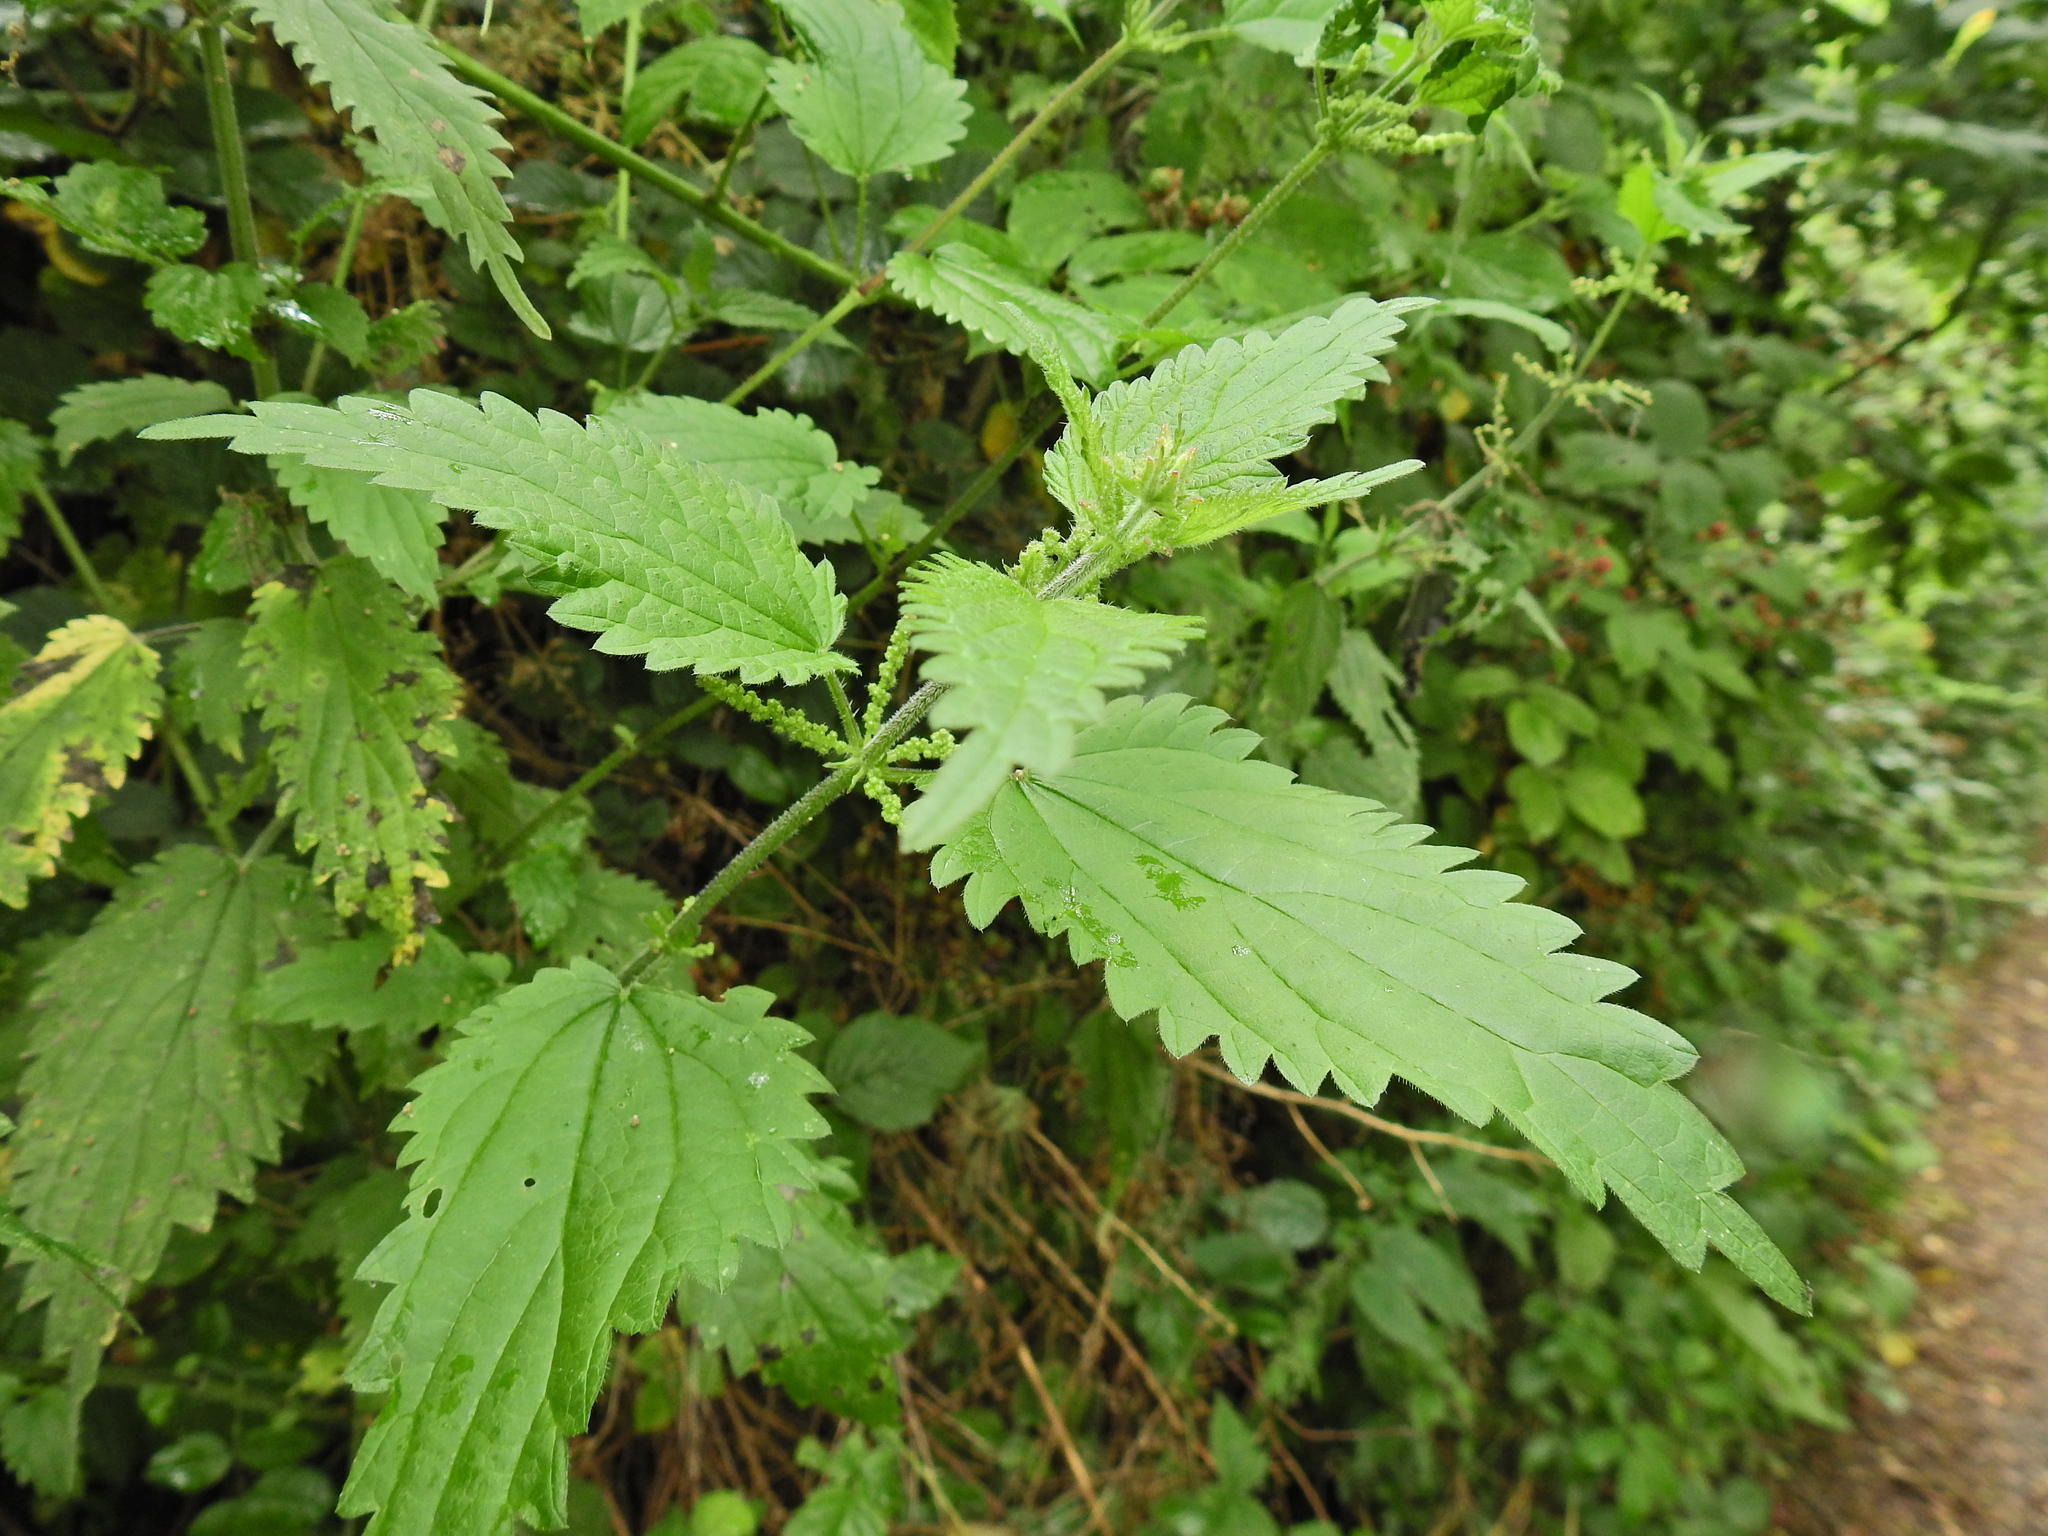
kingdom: Plantae
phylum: Tracheophyta
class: Magnoliopsida
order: Rosales
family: Urticaceae
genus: Urtica
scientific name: Urtica dioica
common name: Common nettle
